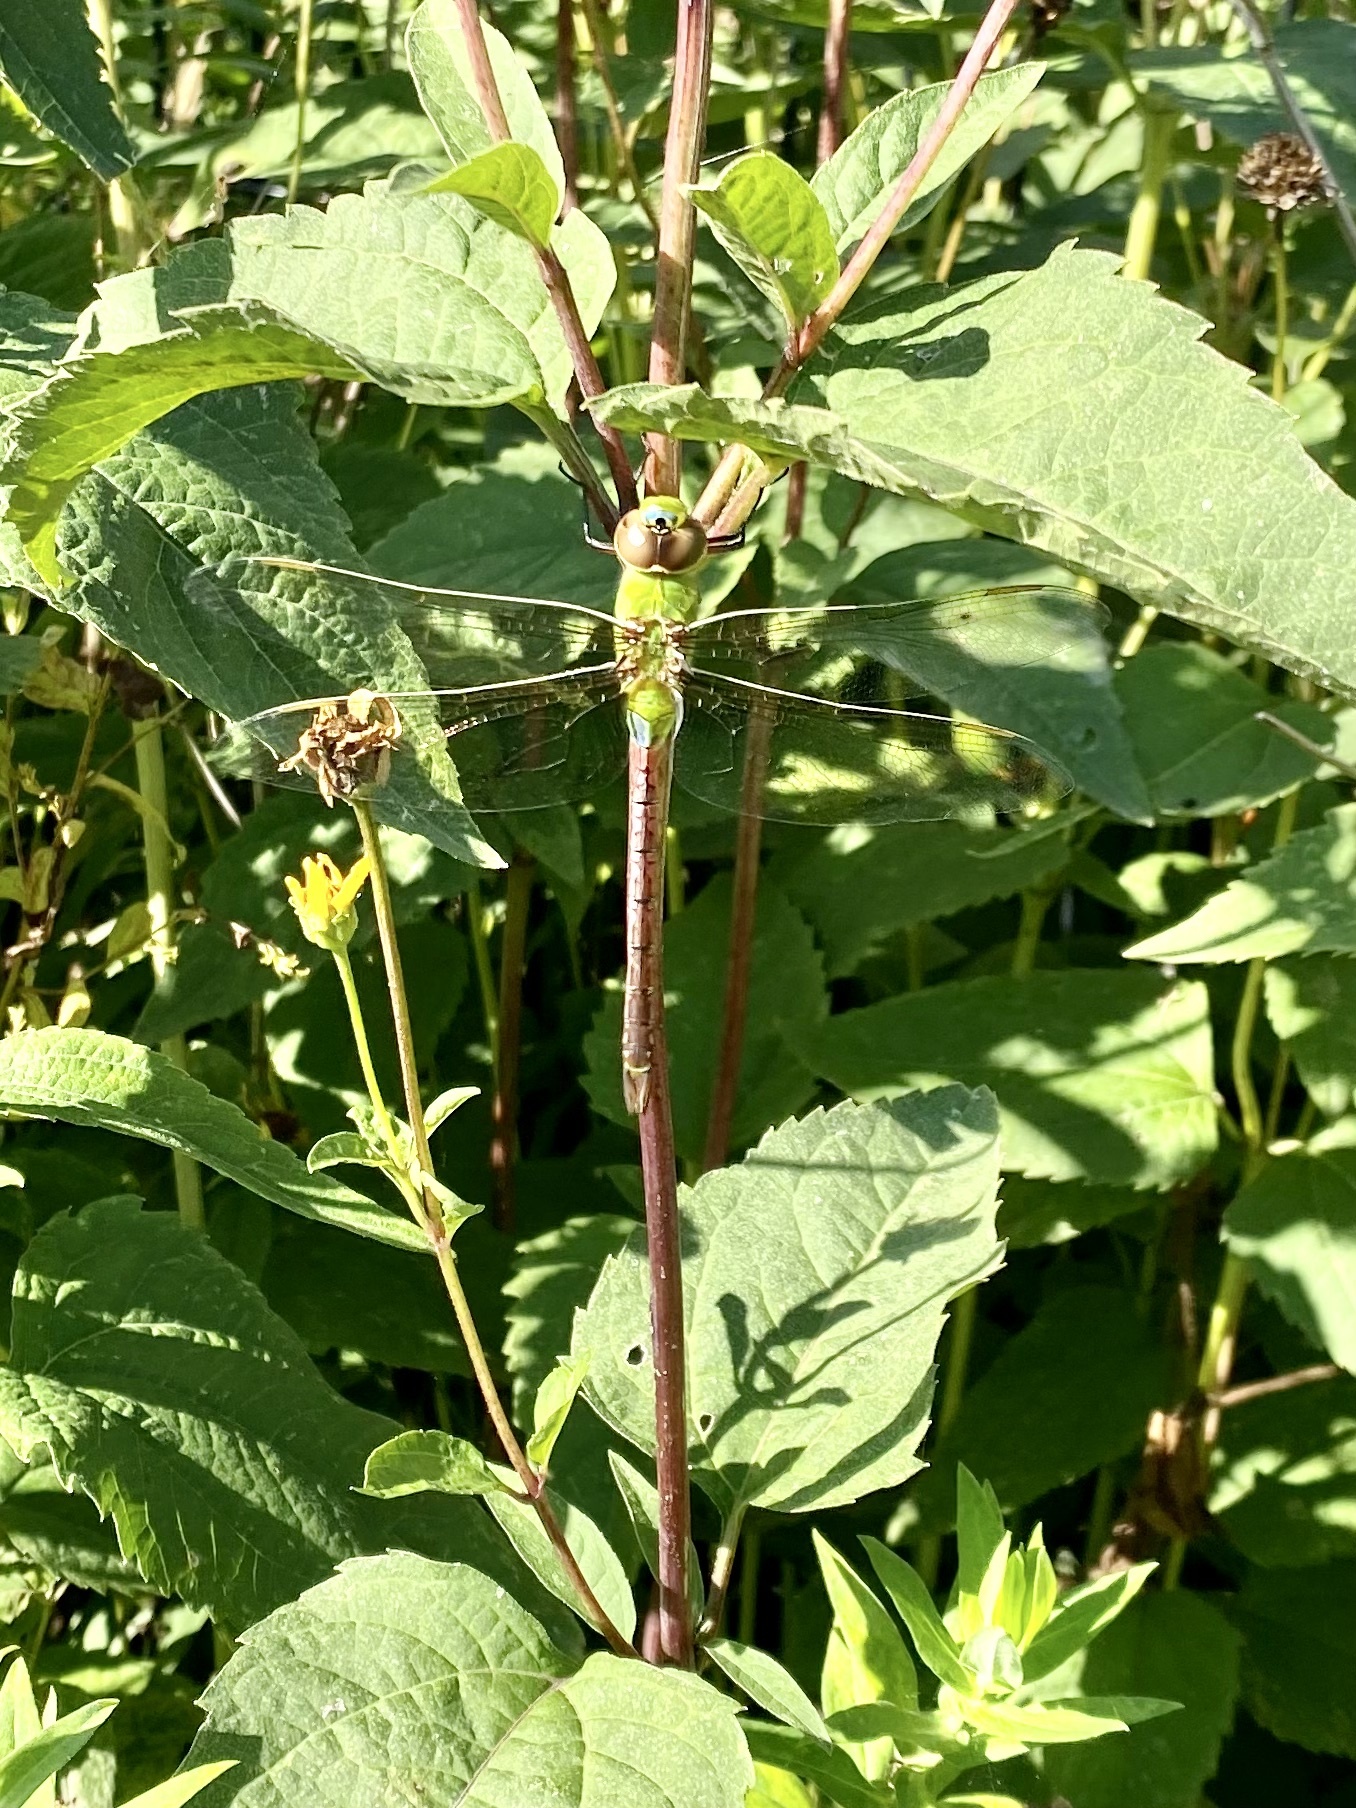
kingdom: Animalia
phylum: Arthropoda
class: Insecta
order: Odonata
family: Aeshnidae
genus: Anax
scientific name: Anax junius
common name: Common green darner
